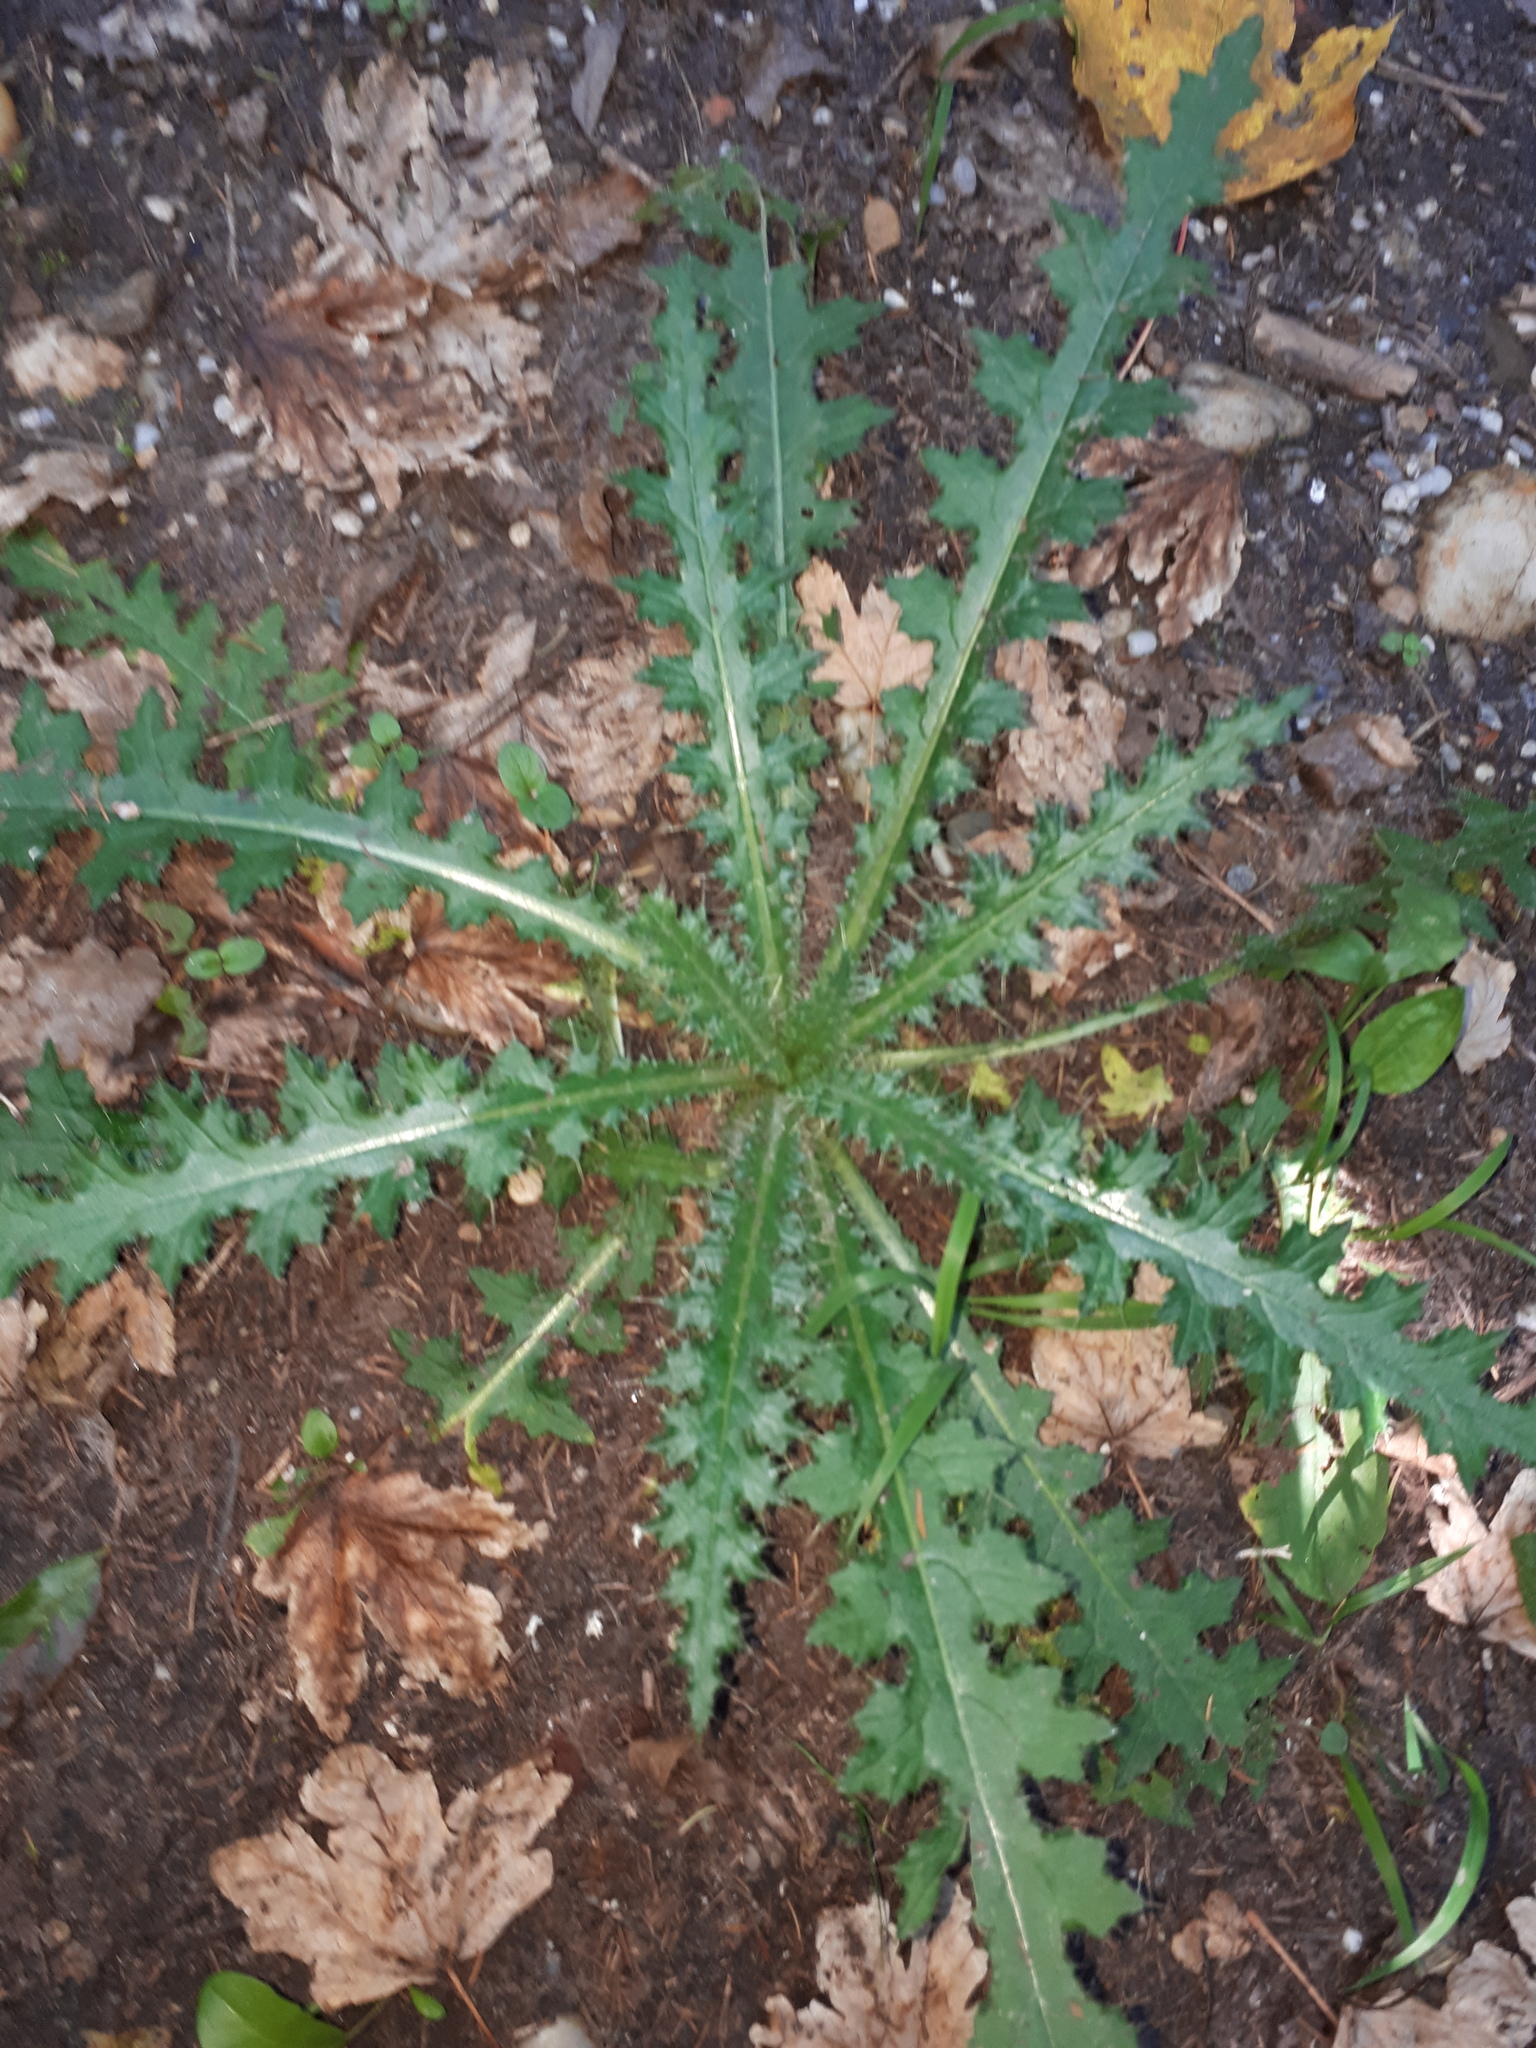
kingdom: Plantae
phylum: Tracheophyta
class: Magnoliopsida
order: Asterales
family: Asteraceae
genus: Cirsium
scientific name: Cirsium palustre
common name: Marsh thistle
